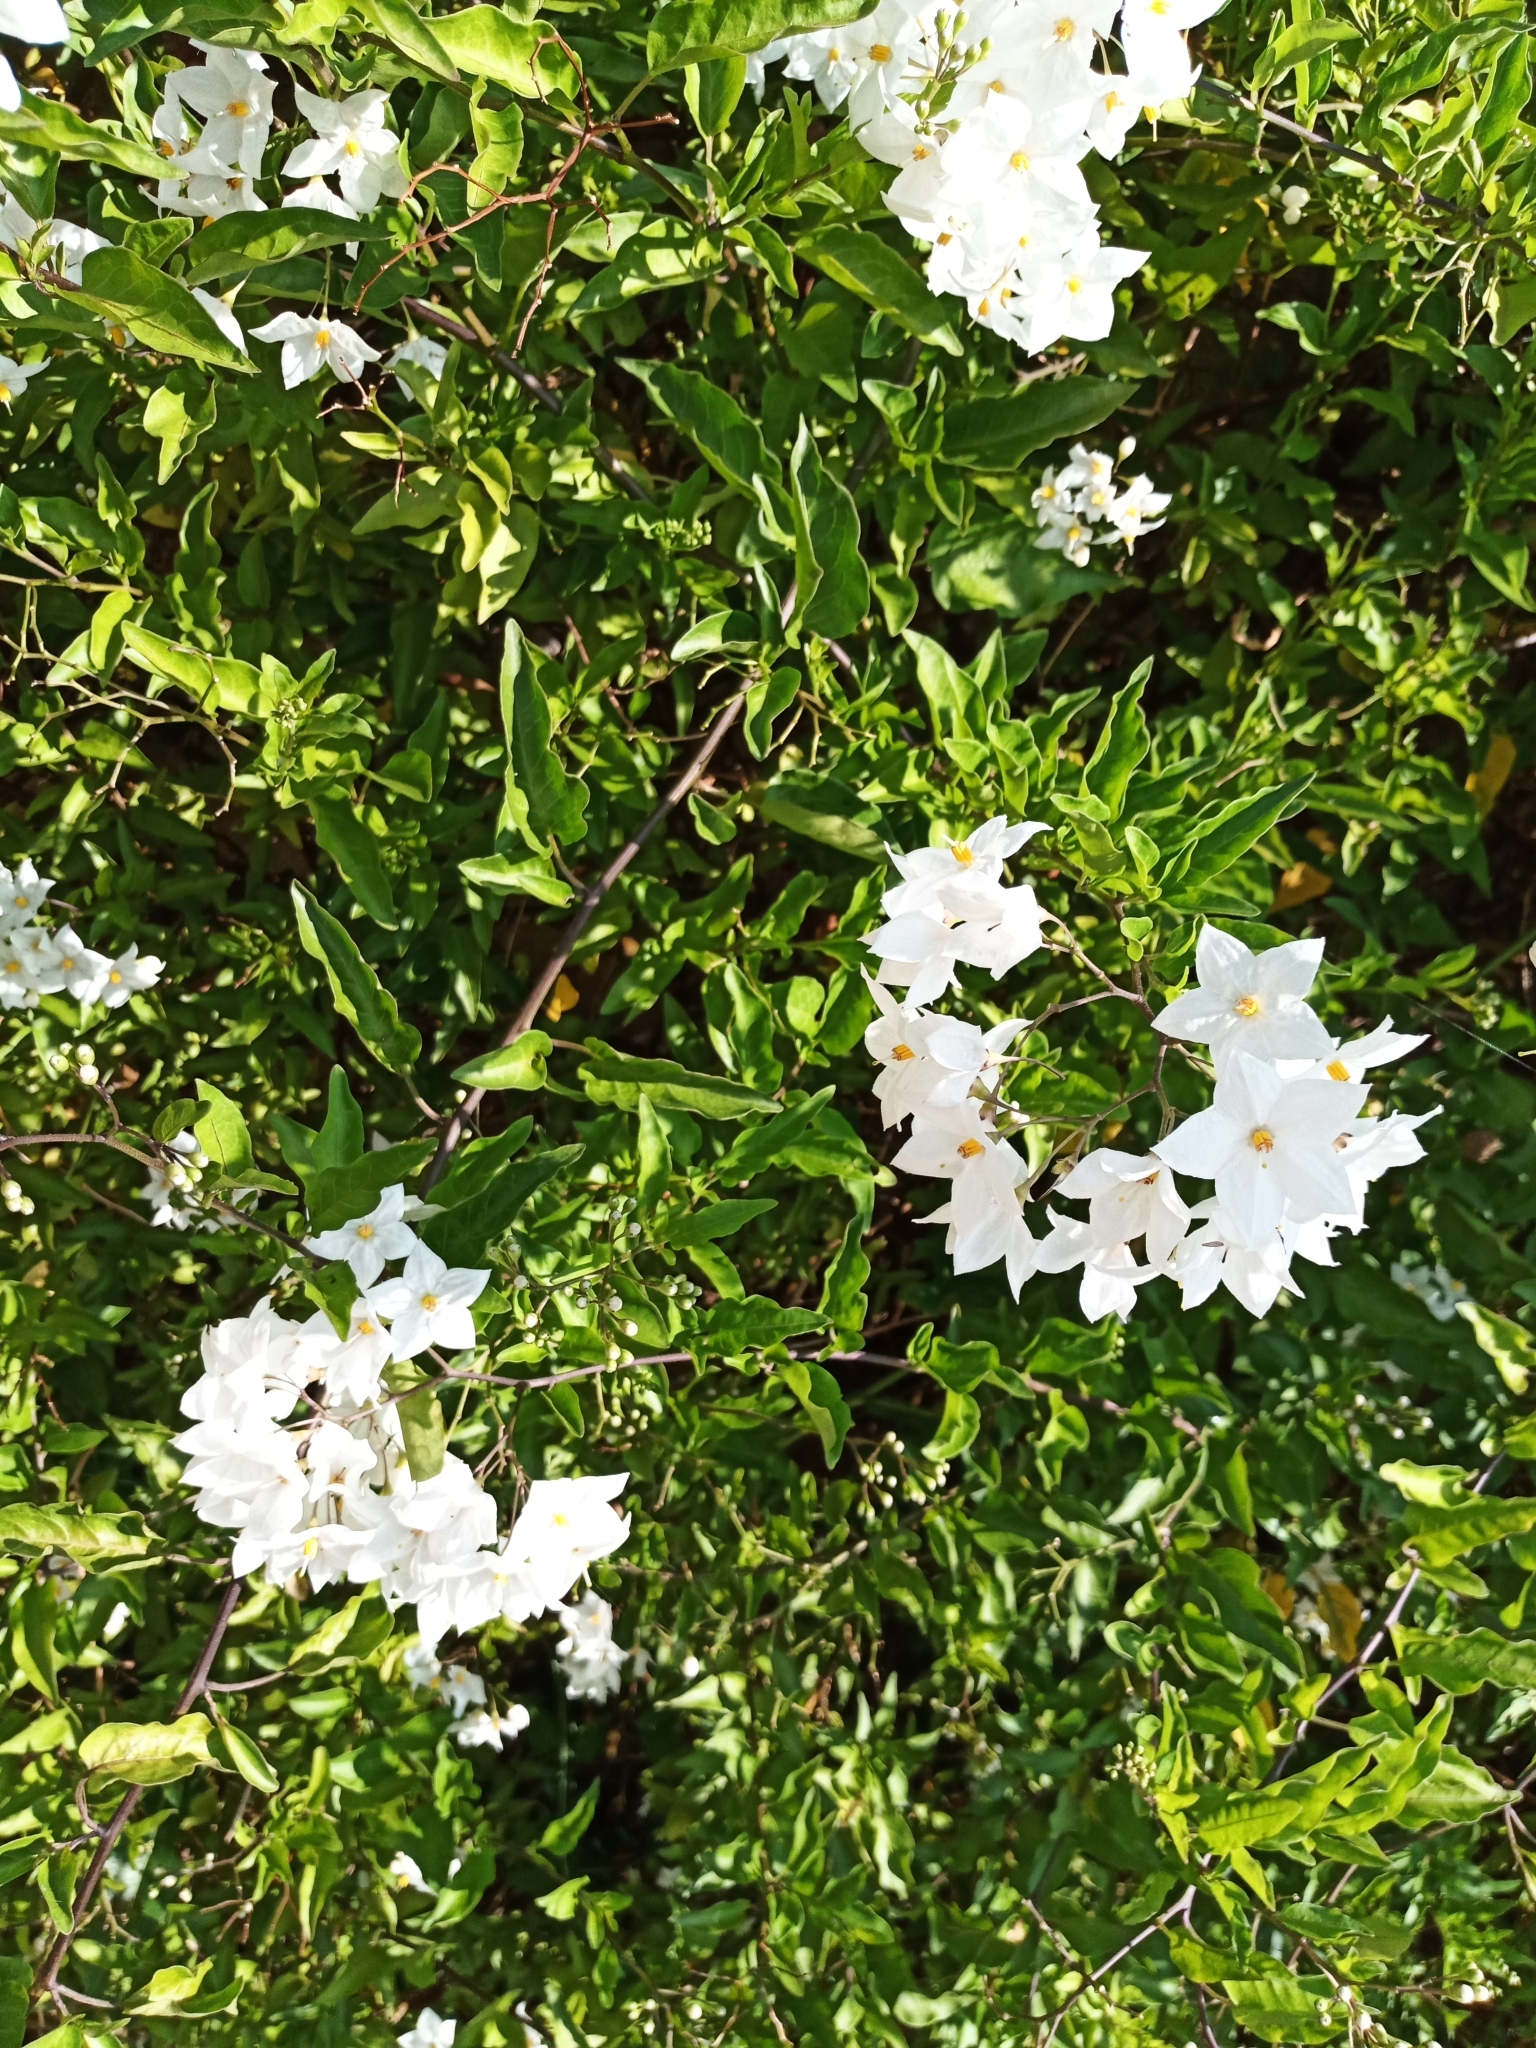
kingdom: Plantae
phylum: Tracheophyta
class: Magnoliopsida
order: Solanales
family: Solanaceae
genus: Solanum
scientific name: Solanum laxum
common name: Nightshade
